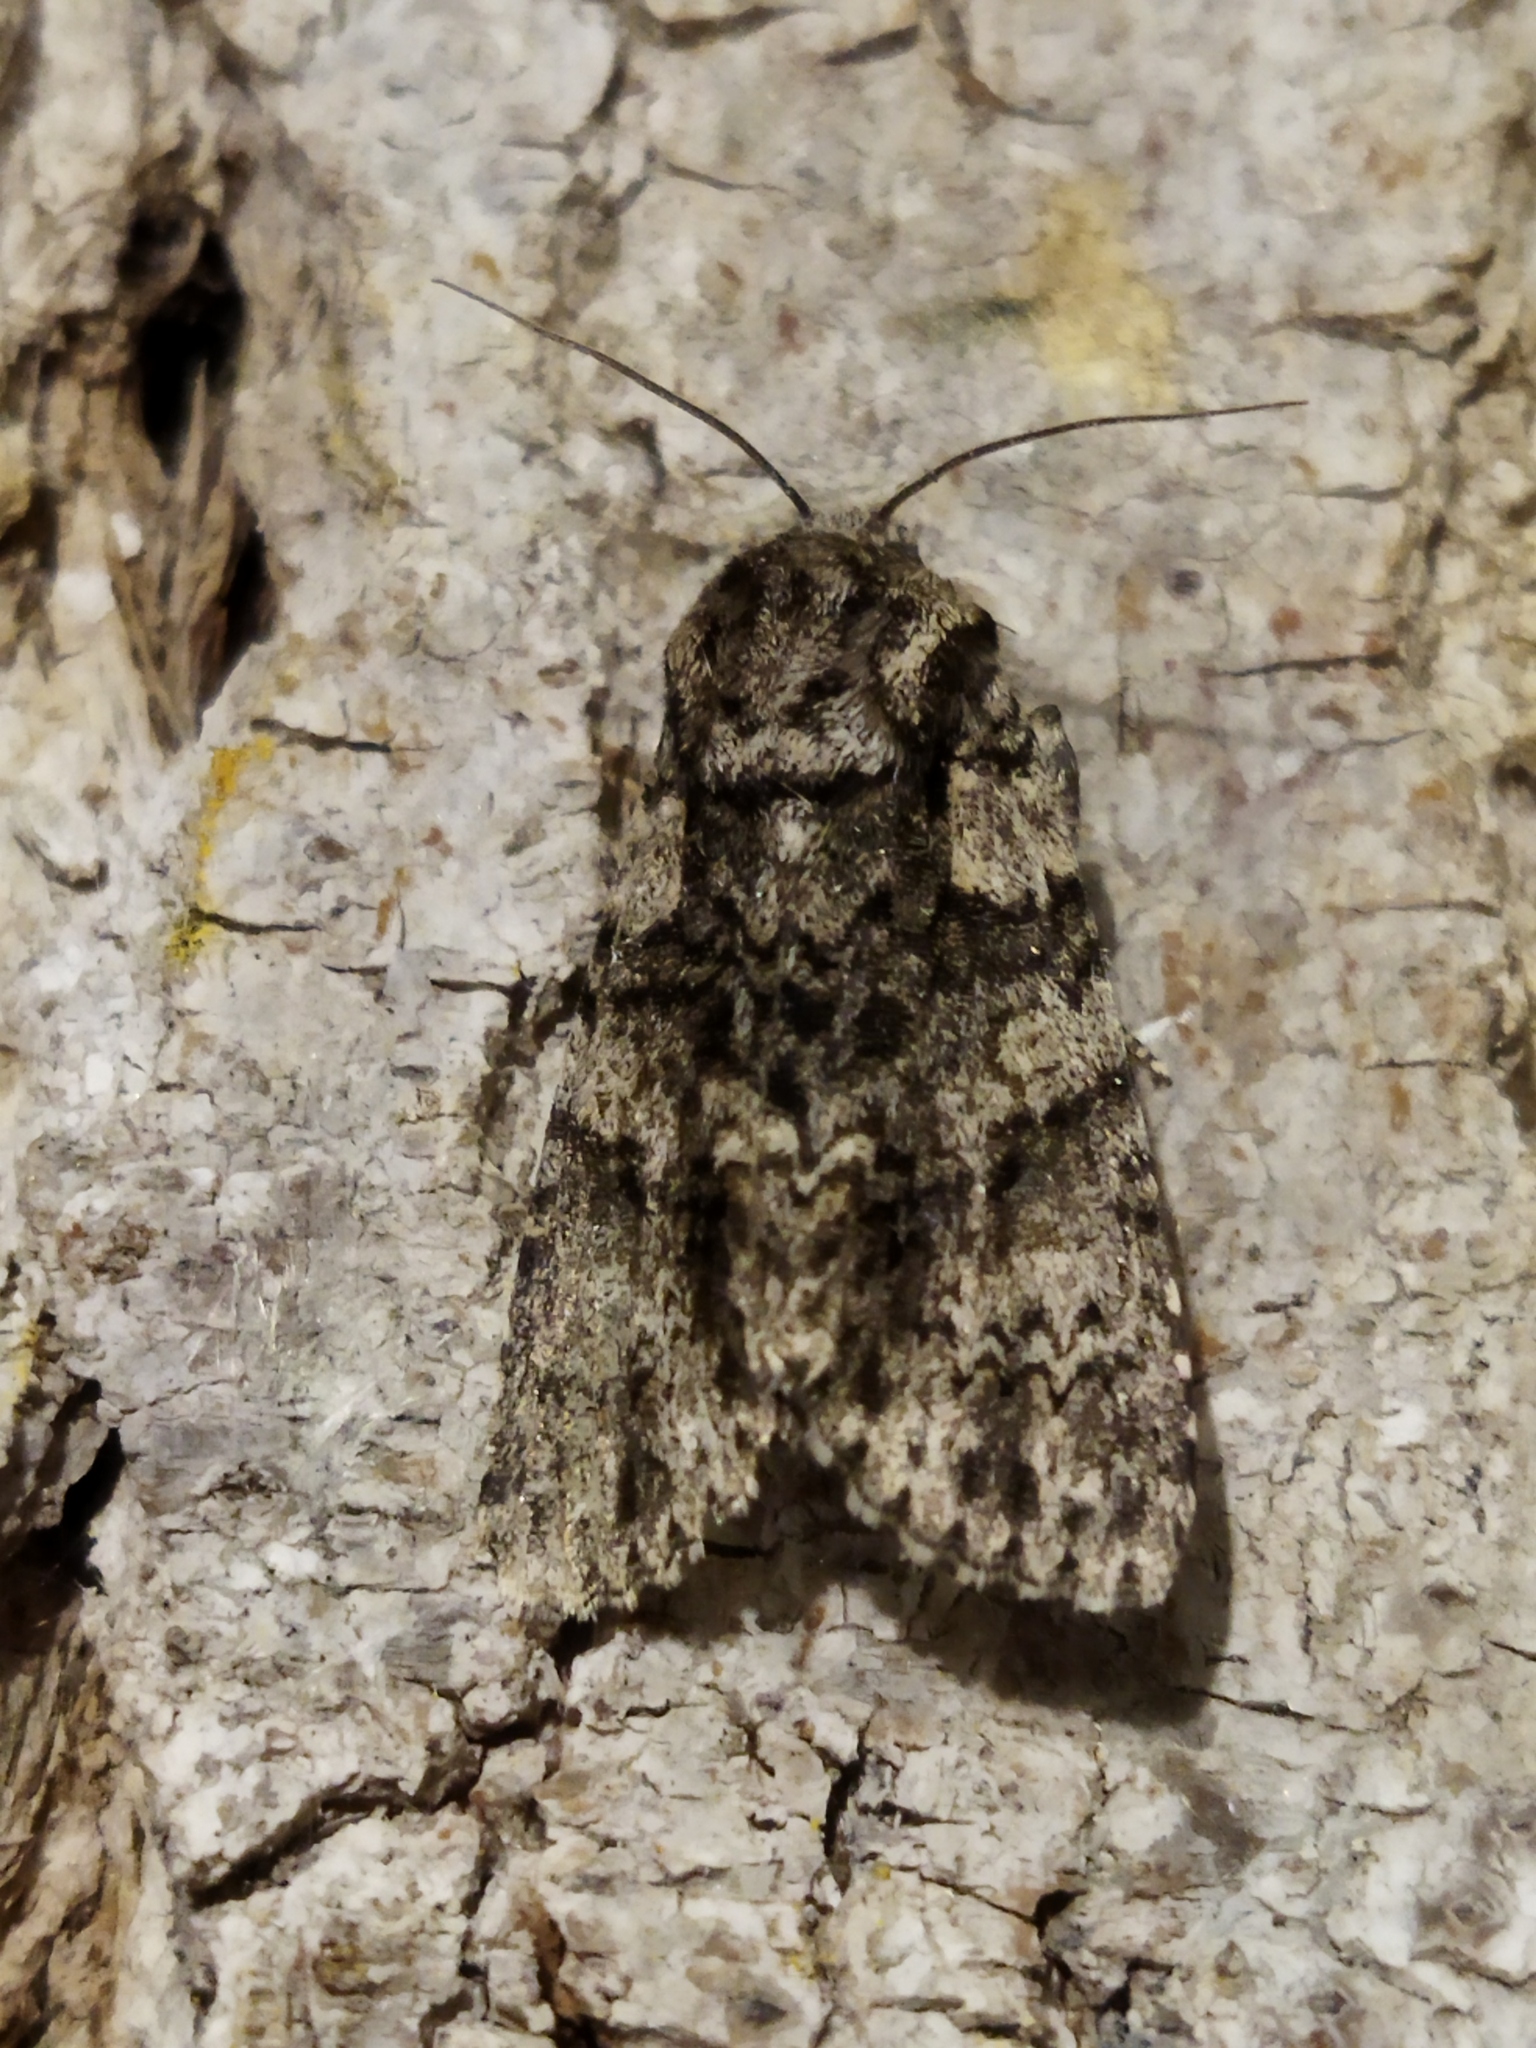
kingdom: Animalia
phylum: Arthropoda
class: Insecta
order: Lepidoptera
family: Noctuidae
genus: Acronicta
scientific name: Acronicta rumicis
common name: Knot grass
